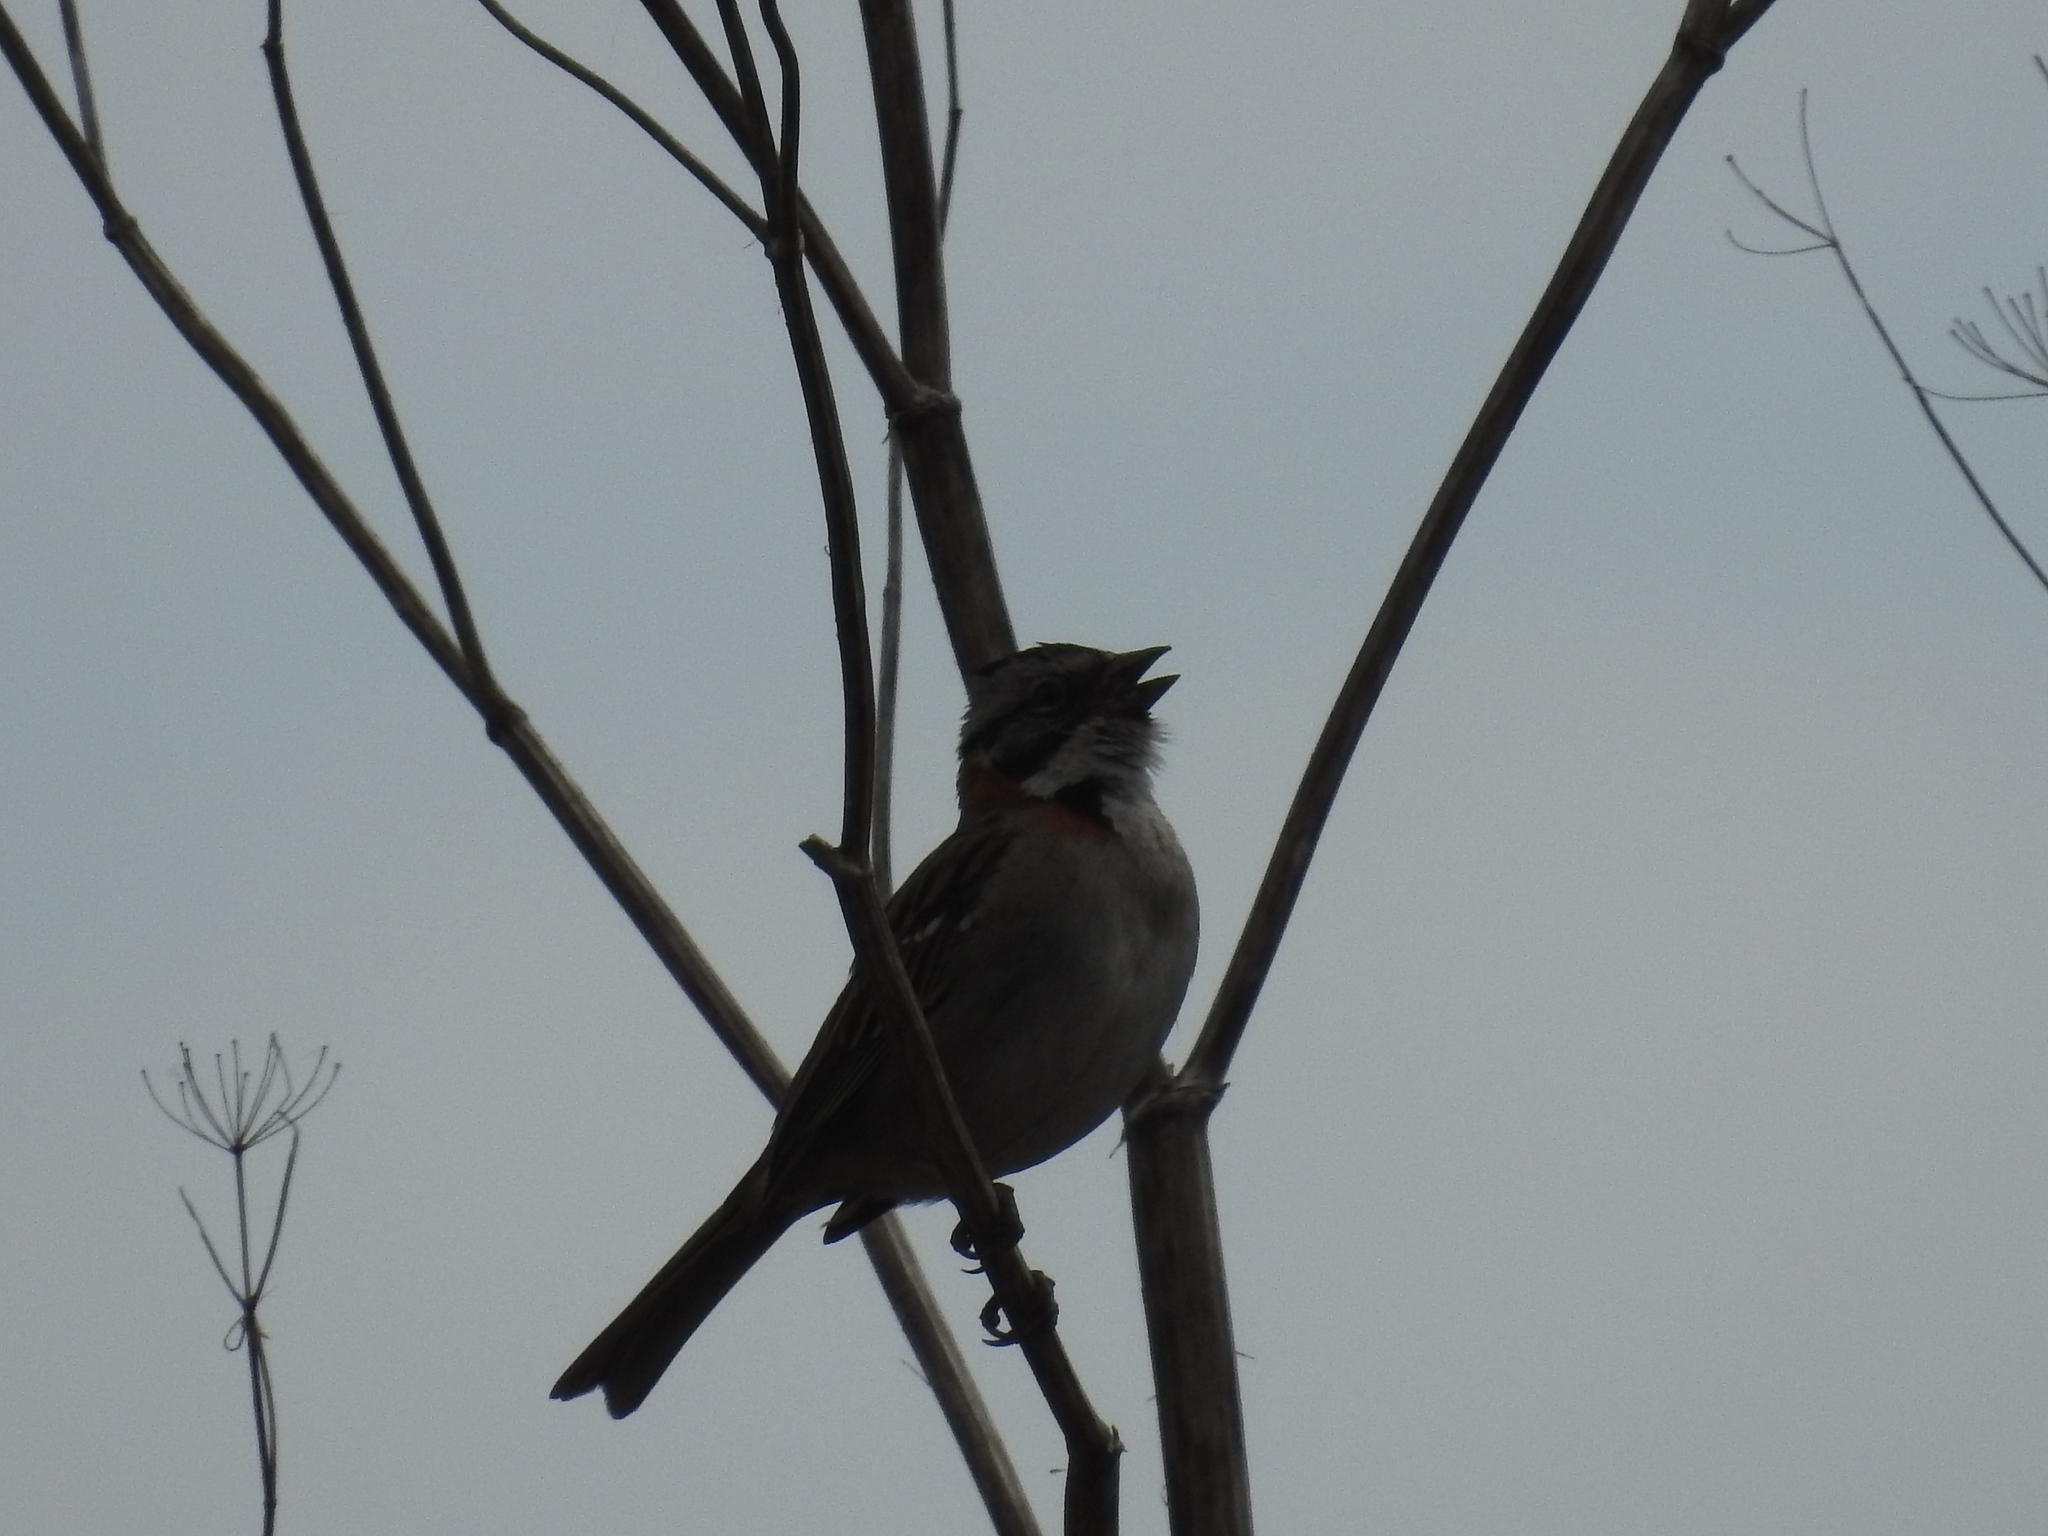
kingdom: Animalia
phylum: Chordata
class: Aves
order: Passeriformes
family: Passerellidae
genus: Zonotrichia
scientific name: Zonotrichia capensis
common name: Rufous-collared sparrow
